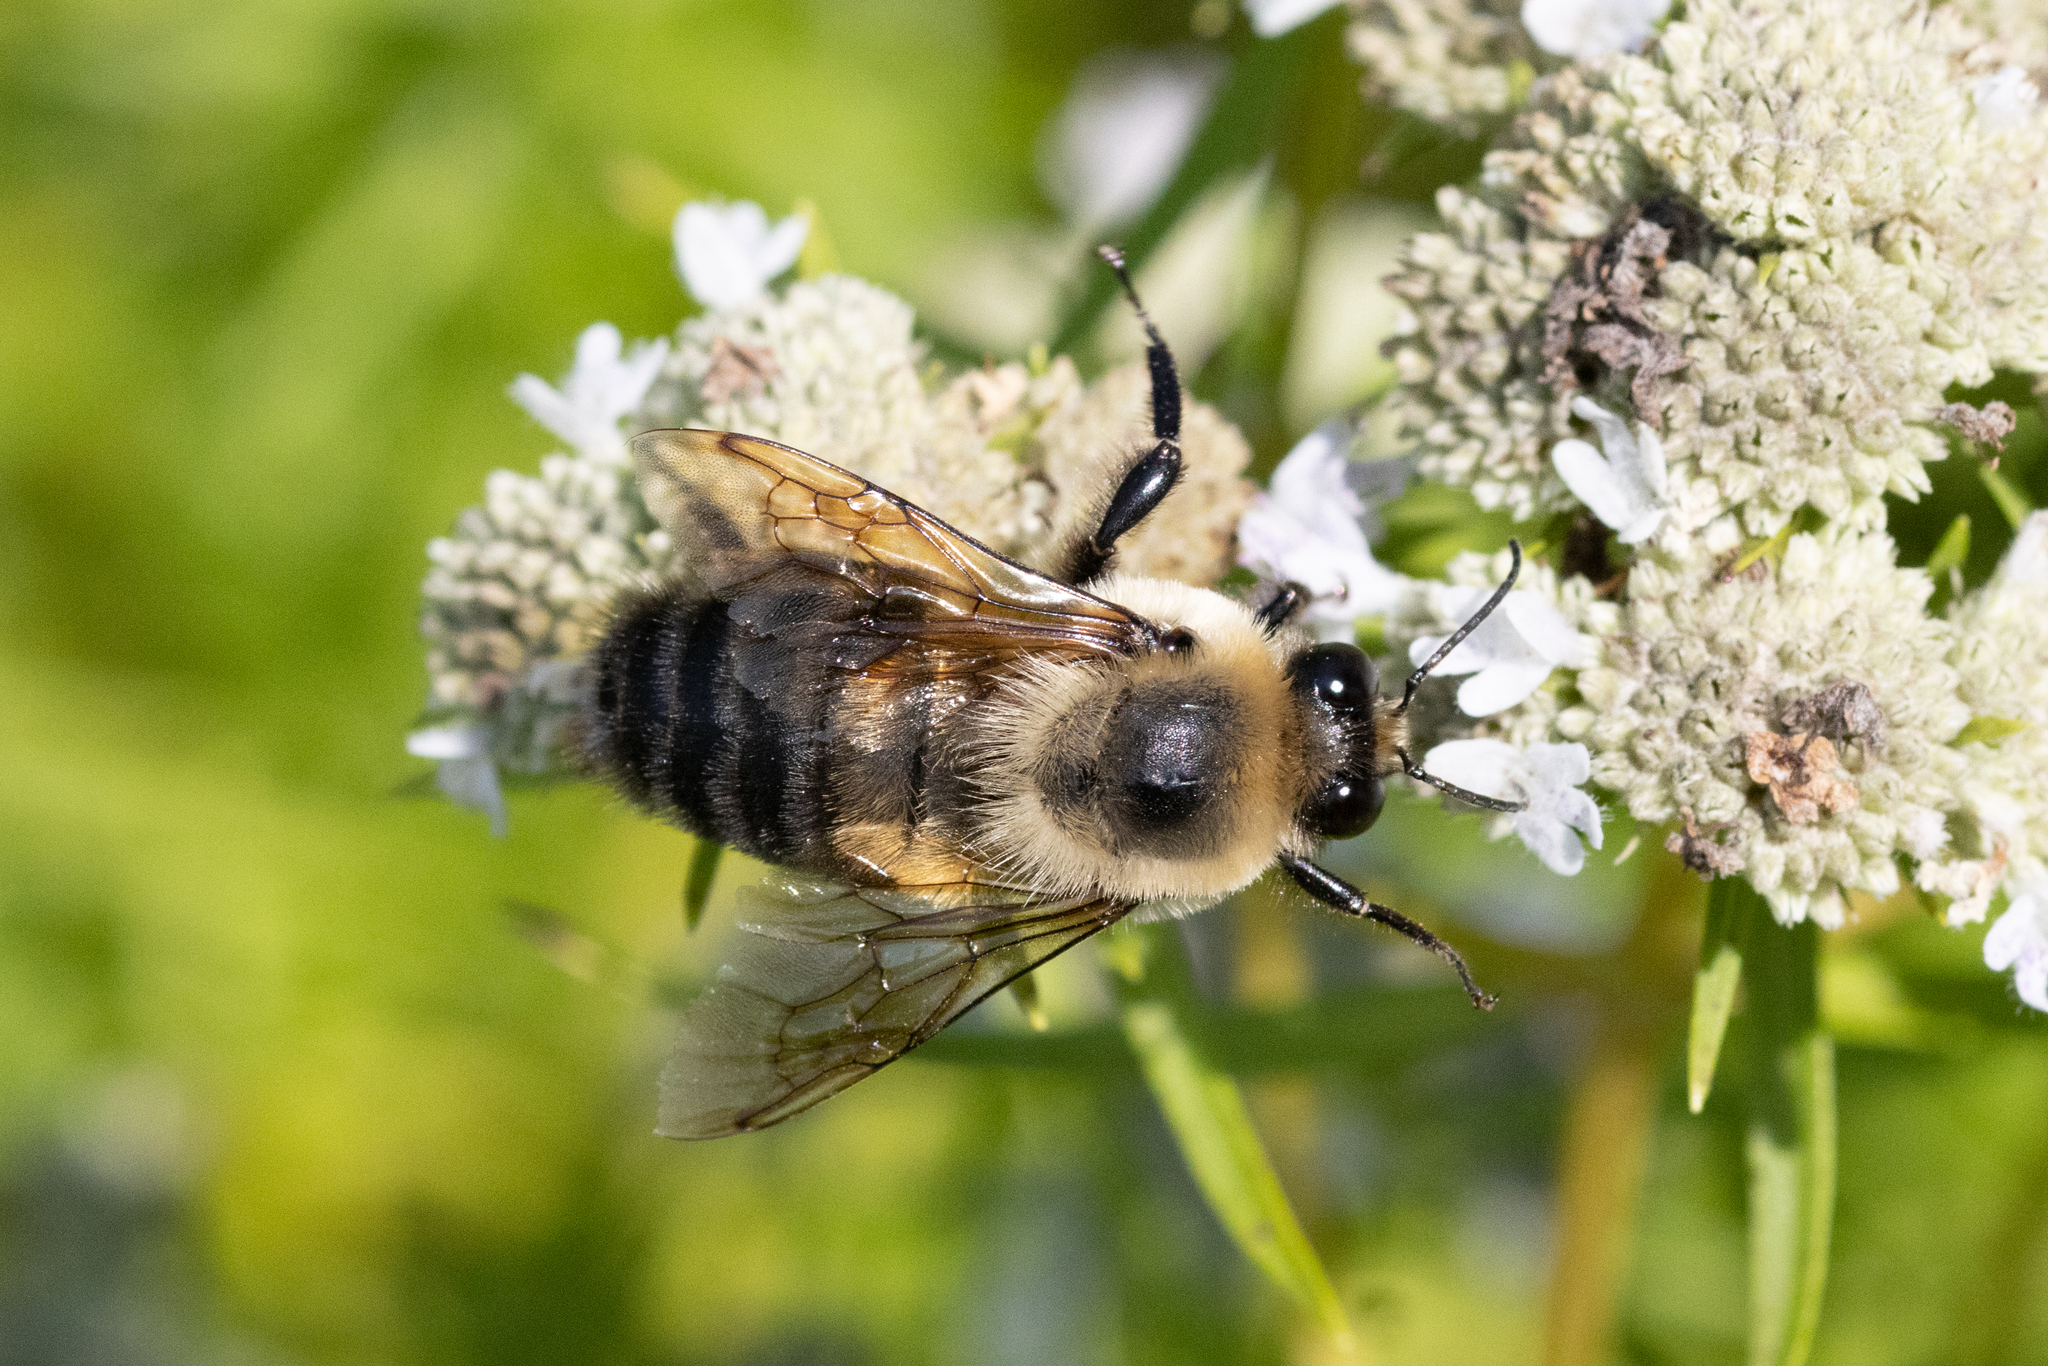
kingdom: Animalia
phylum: Arthropoda
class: Insecta
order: Hymenoptera
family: Apidae
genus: Bombus
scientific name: Bombus griseocollis
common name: Brown-belted bumble bee
